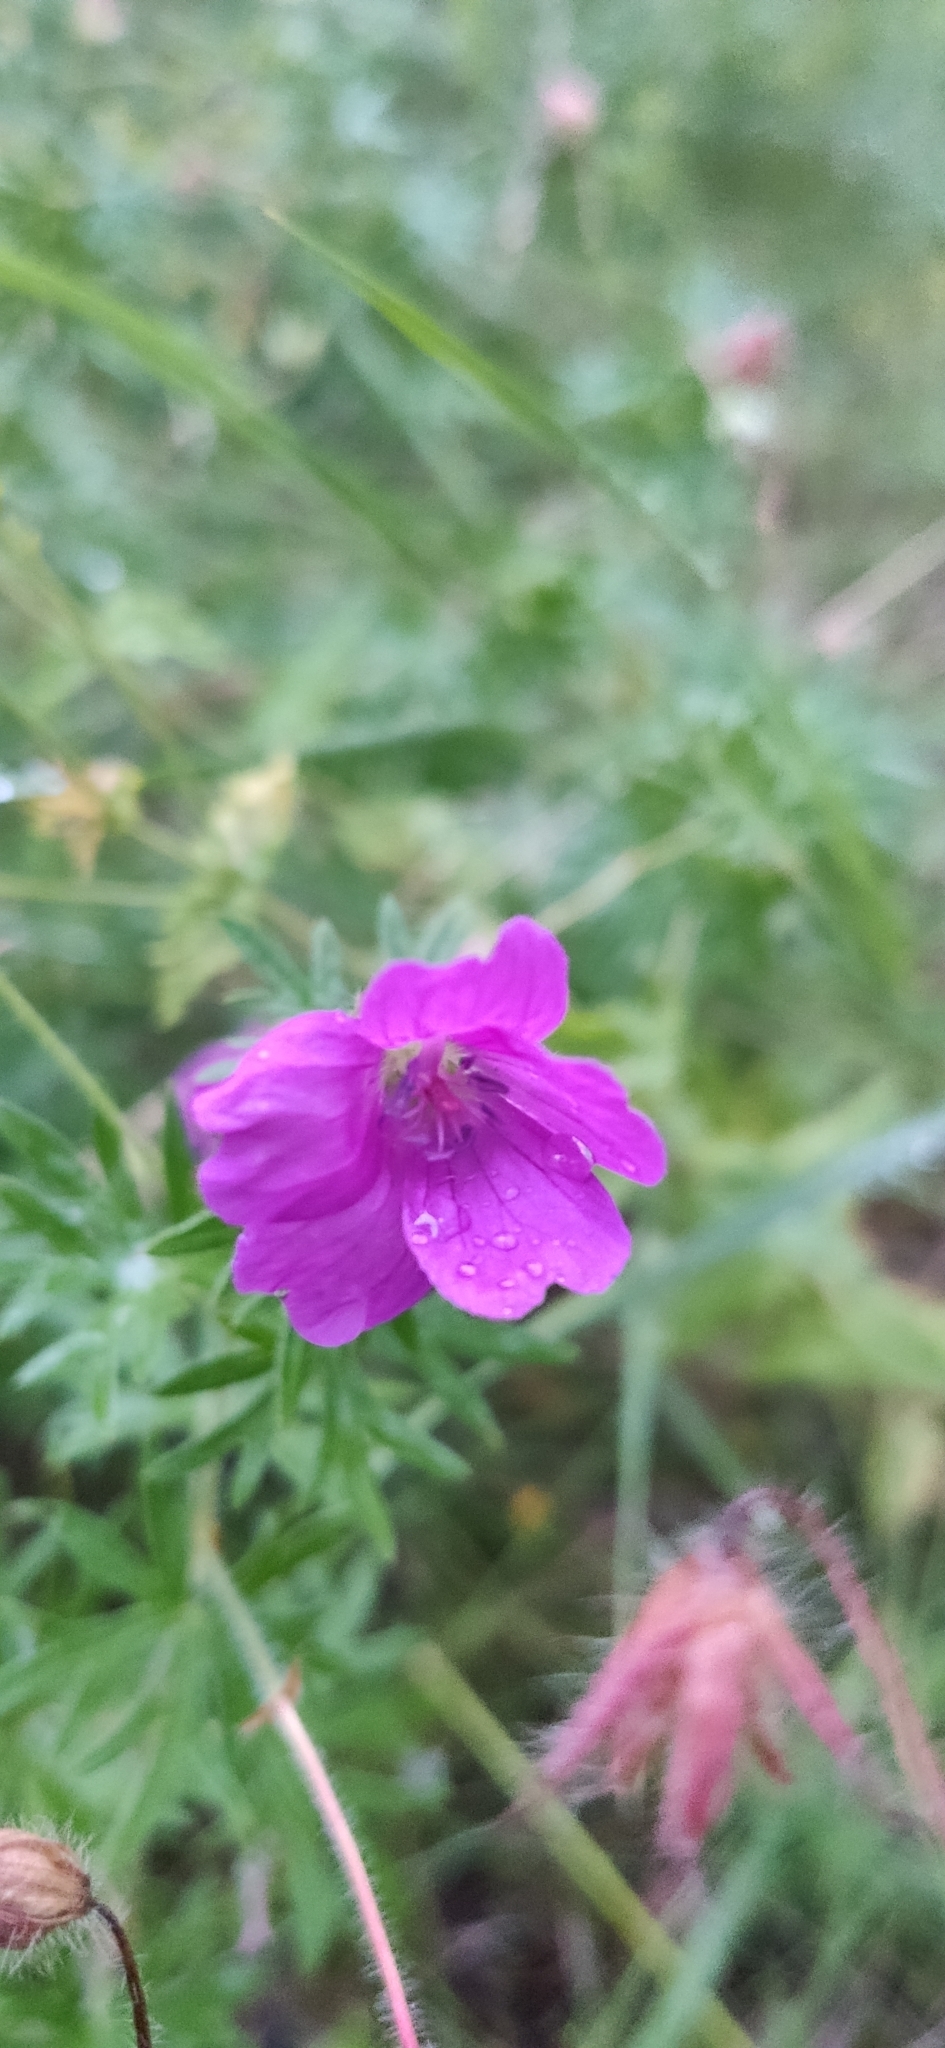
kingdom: Plantae
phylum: Tracheophyta
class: Magnoliopsida
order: Geraniales
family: Geraniaceae
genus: Geranium
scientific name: Geranium sanguineum
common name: Bloody crane's-bill
